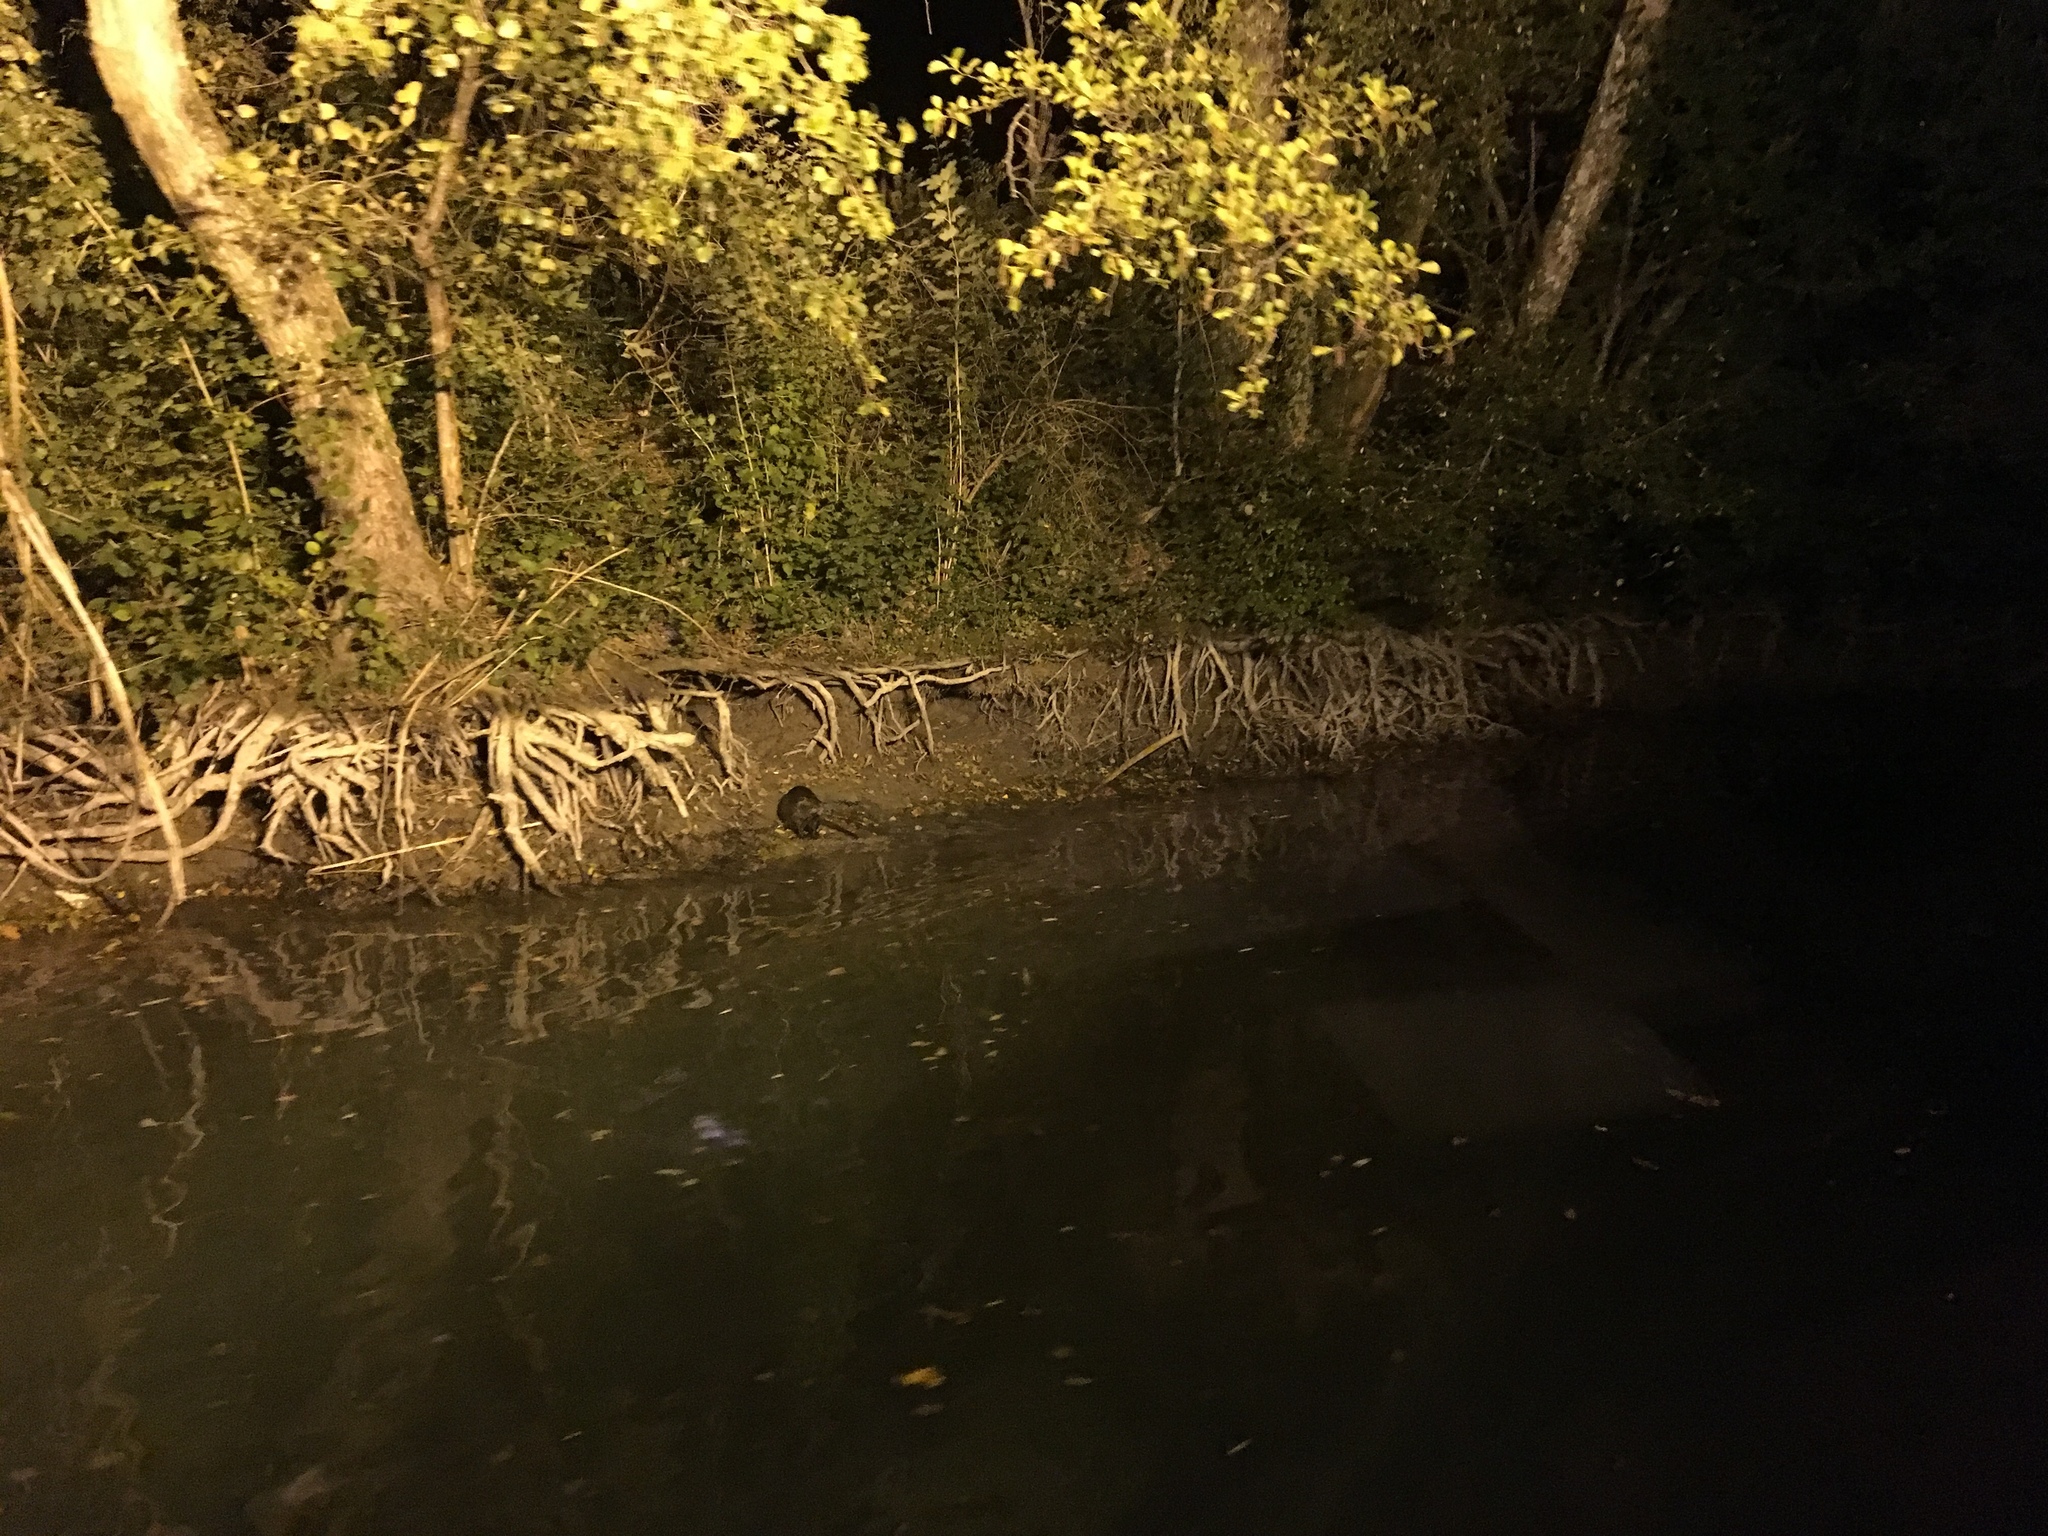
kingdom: Animalia
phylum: Chordata
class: Mammalia
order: Rodentia
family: Myocastoridae
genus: Myocastor
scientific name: Myocastor coypus
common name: Coypu
